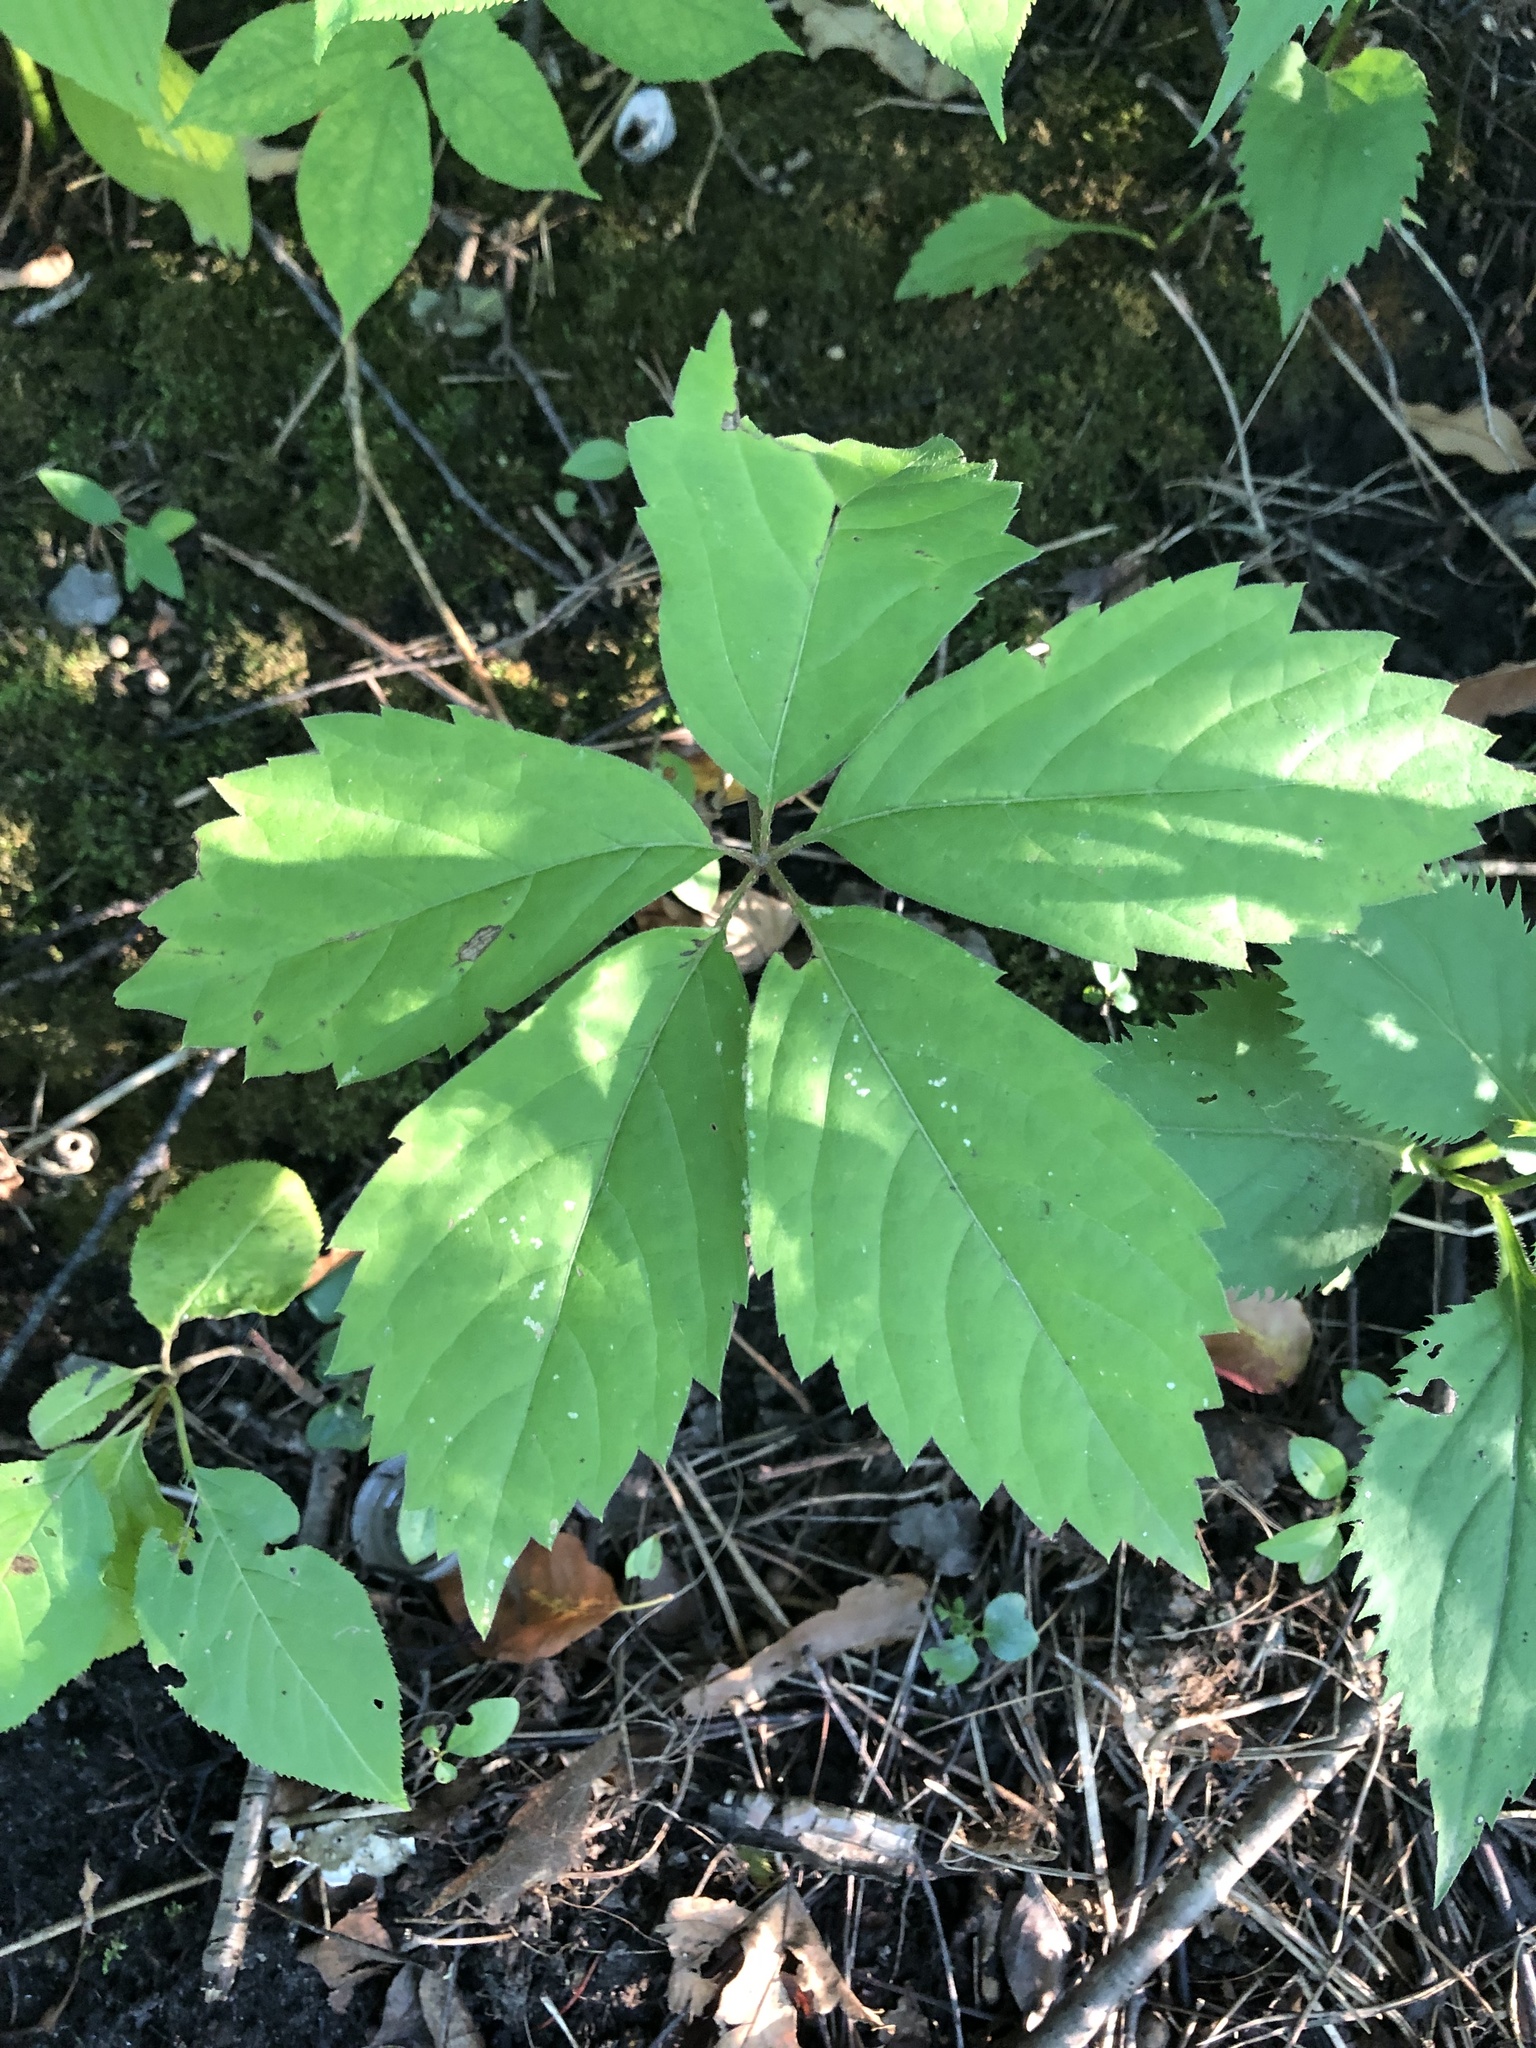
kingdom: Plantae
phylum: Tracheophyta
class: Magnoliopsida
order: Vitales
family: Vitaceae
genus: Parthenocissus
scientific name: Parthenocissus inserta
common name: False virginia-creeper
